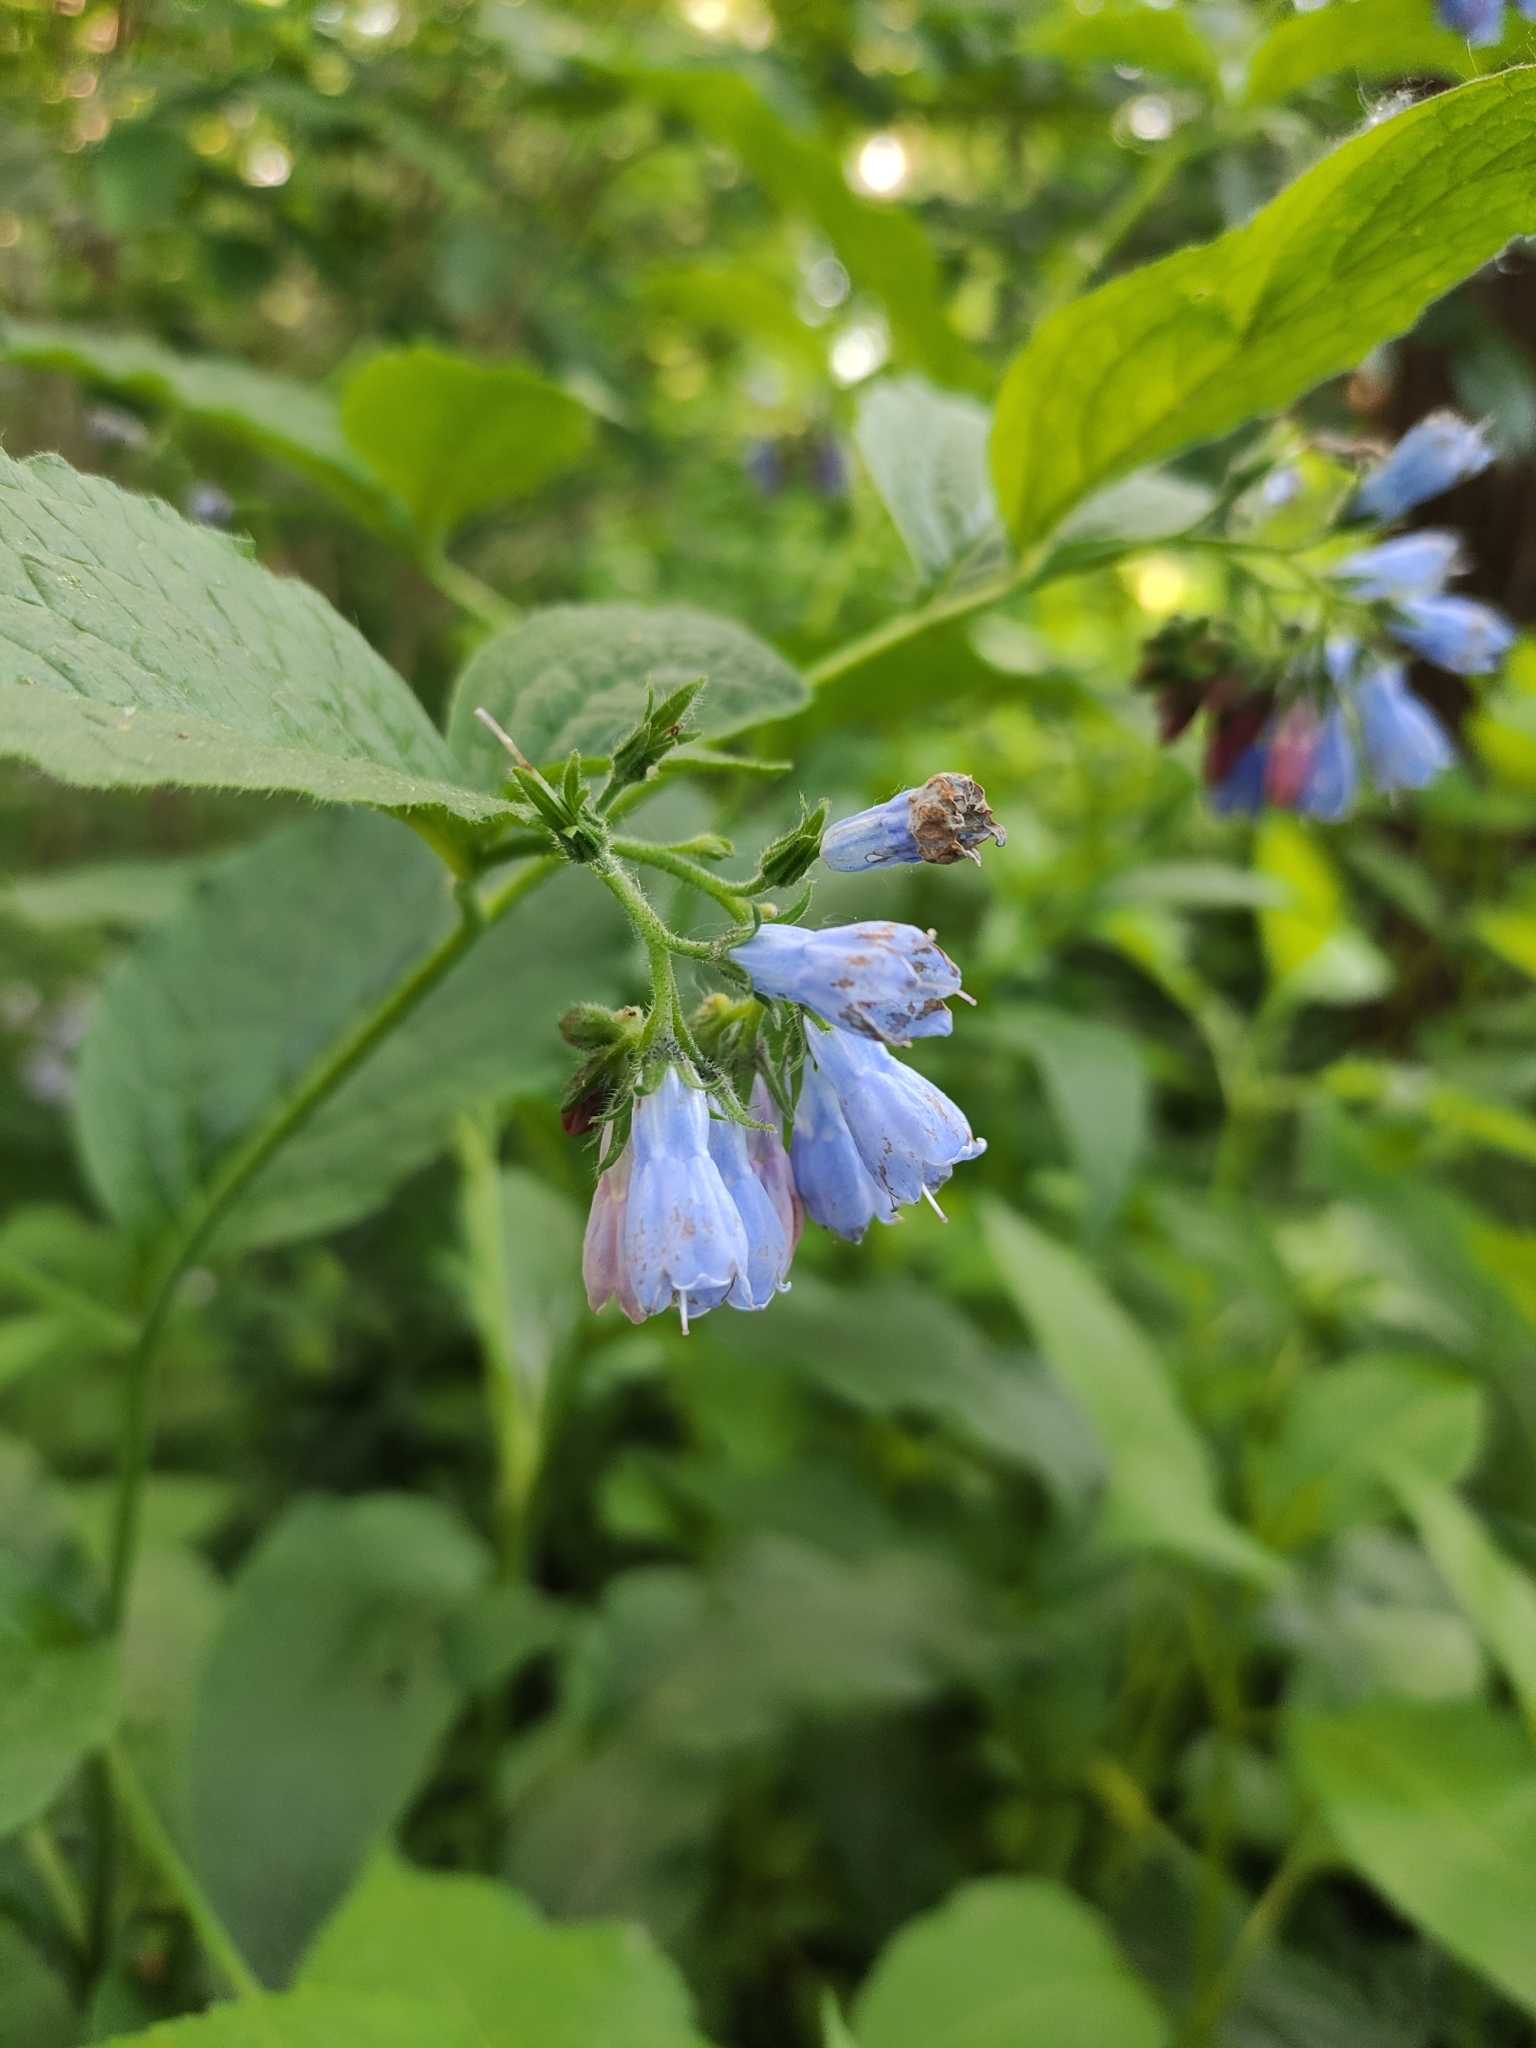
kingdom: Plantae
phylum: Tracheophyta
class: Magnoliopsida
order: Boraginales
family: Boraginaceae
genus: Symphytum
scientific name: Symphytum asperum
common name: Prickly comfrey
